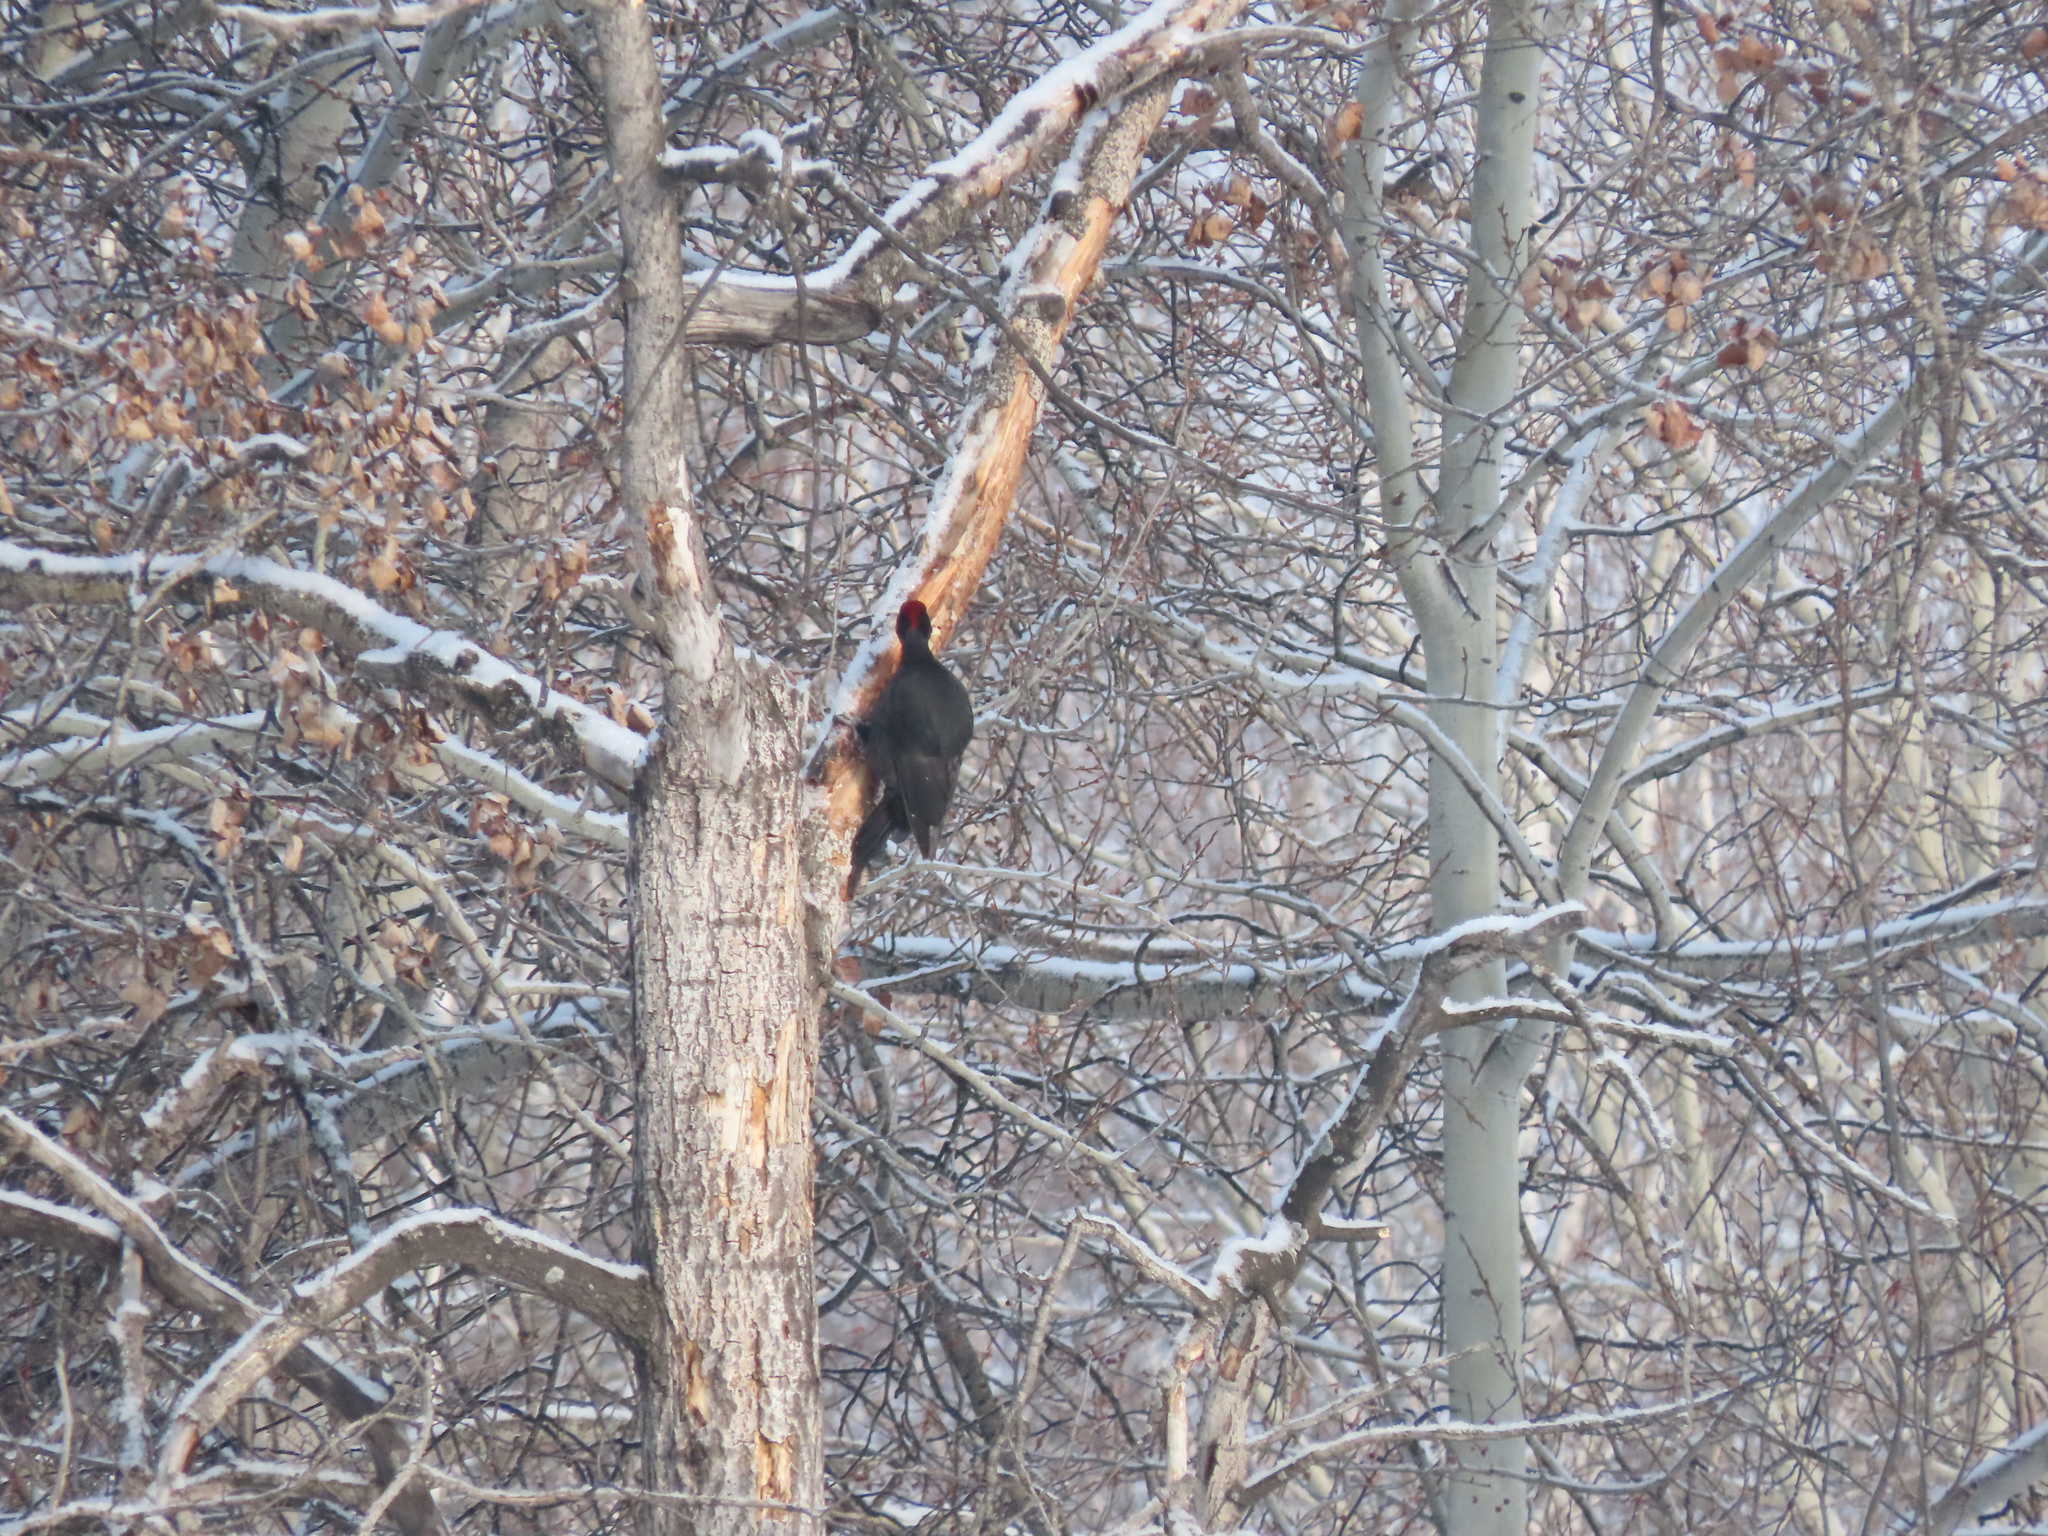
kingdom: Animalia
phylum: Chordata
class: Aves
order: Piciformes
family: Picidae
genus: Dryocopus
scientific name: Dryocopus martius
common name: Black woodpecker
